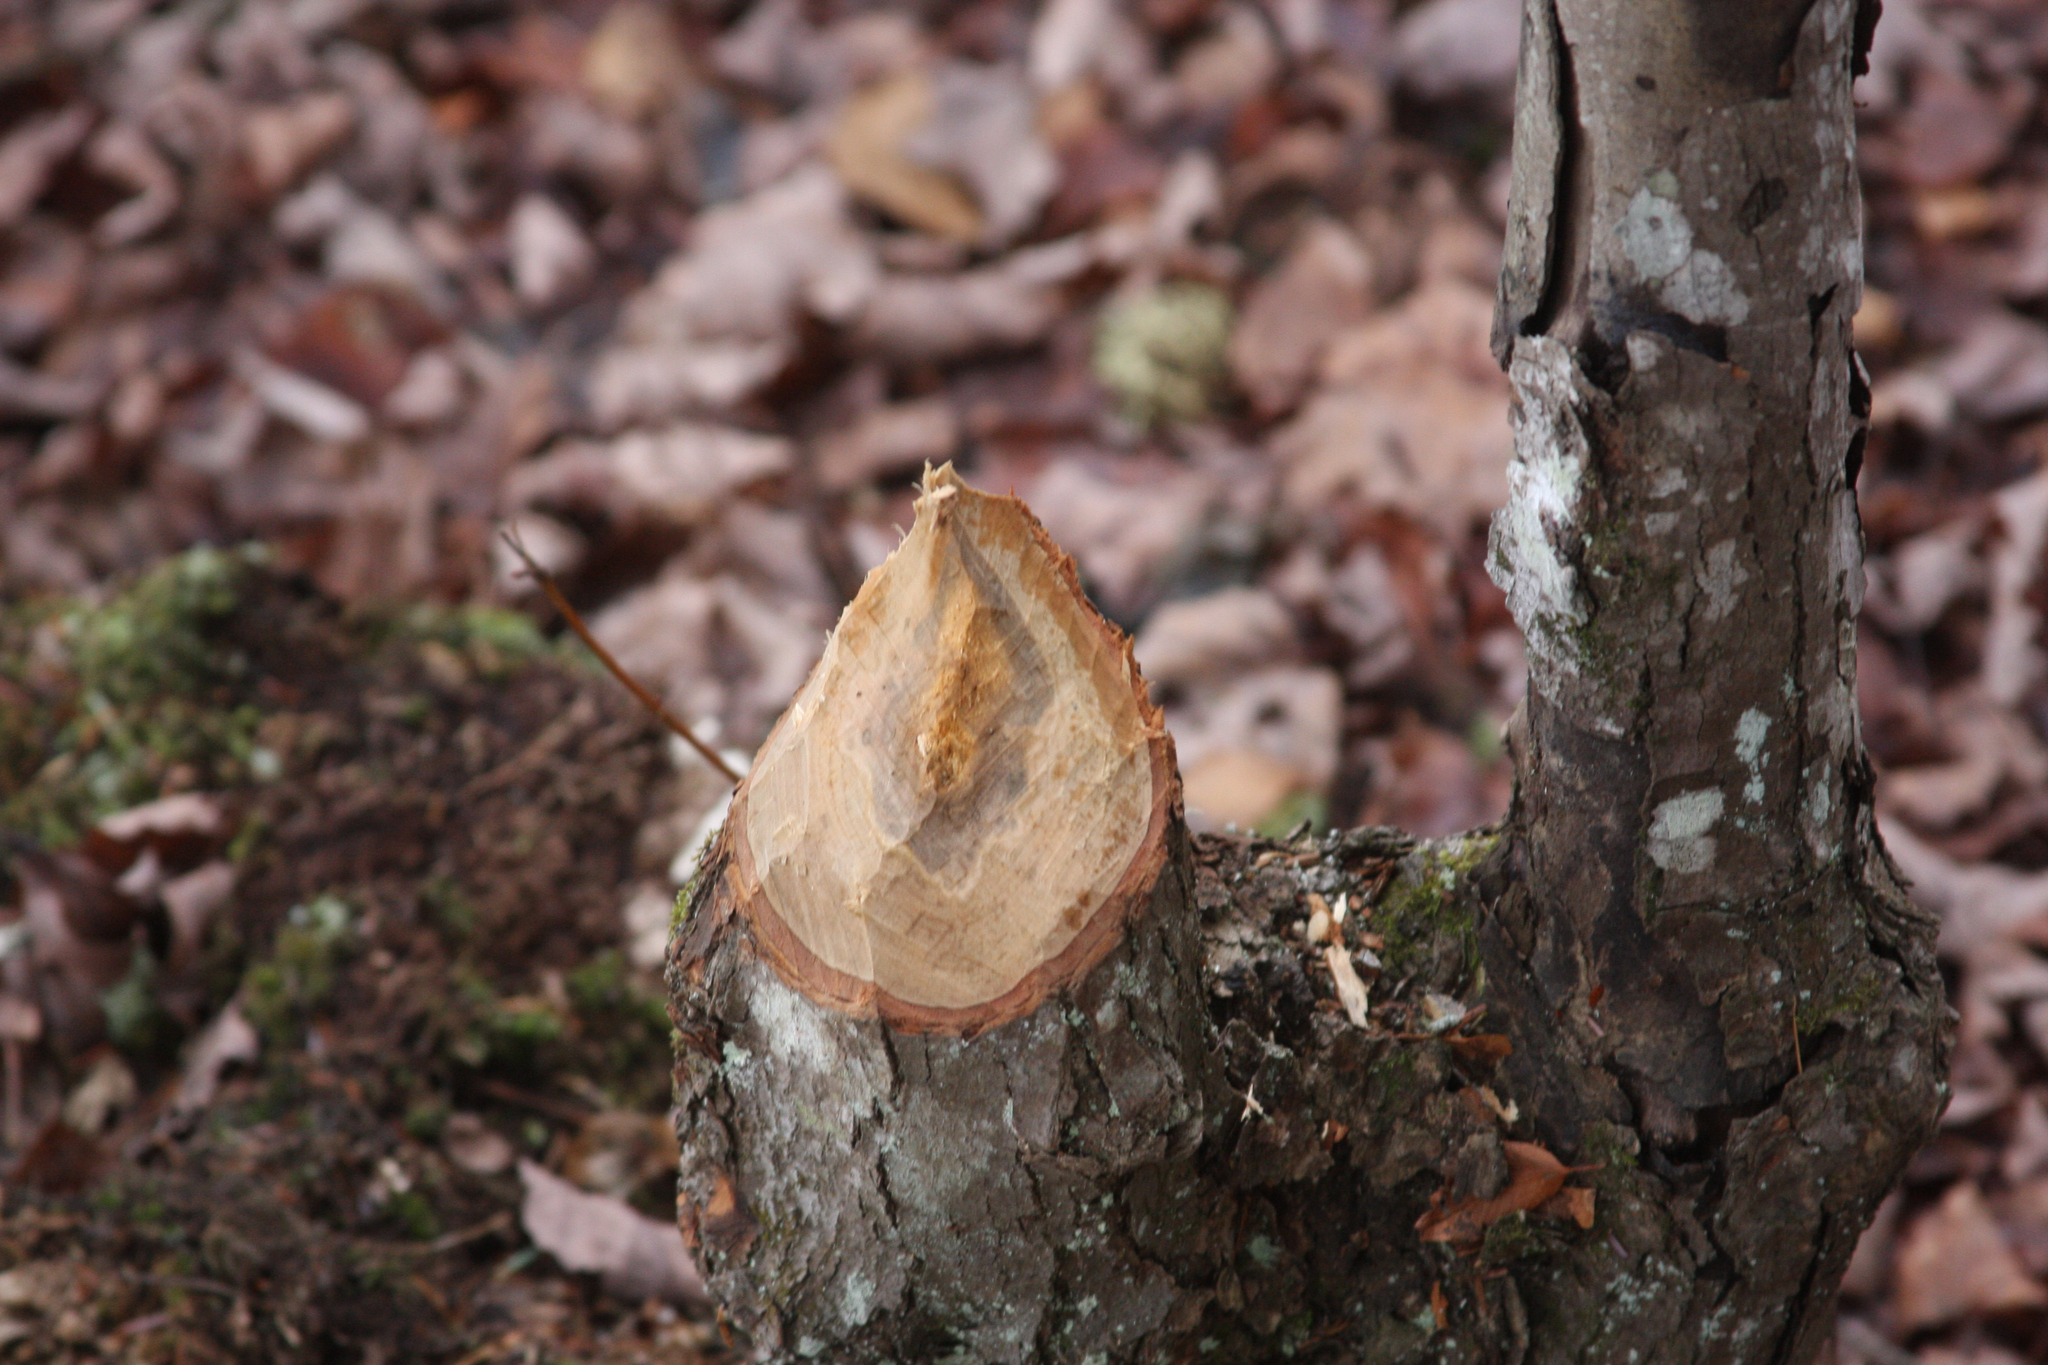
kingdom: Animalia
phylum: Chordata
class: Mammalia
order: Rodentia
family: Castoridae
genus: Castor
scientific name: Castor canadensis
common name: American beaver
